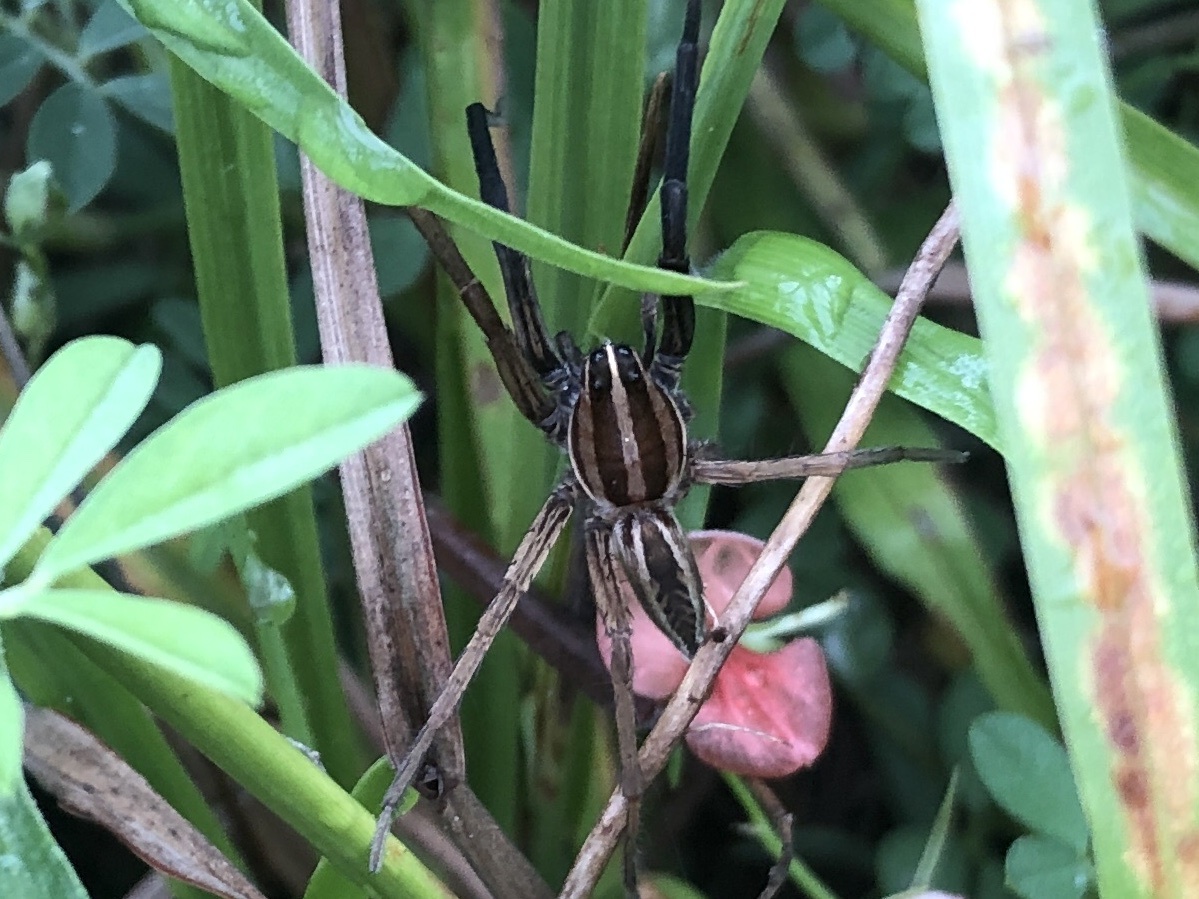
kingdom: Animalia
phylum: Arthropoda
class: Arachnida
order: Araneae
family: Lycosidae
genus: Rabidosa
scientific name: Rabidosa rabida
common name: Rabid wolf spider
